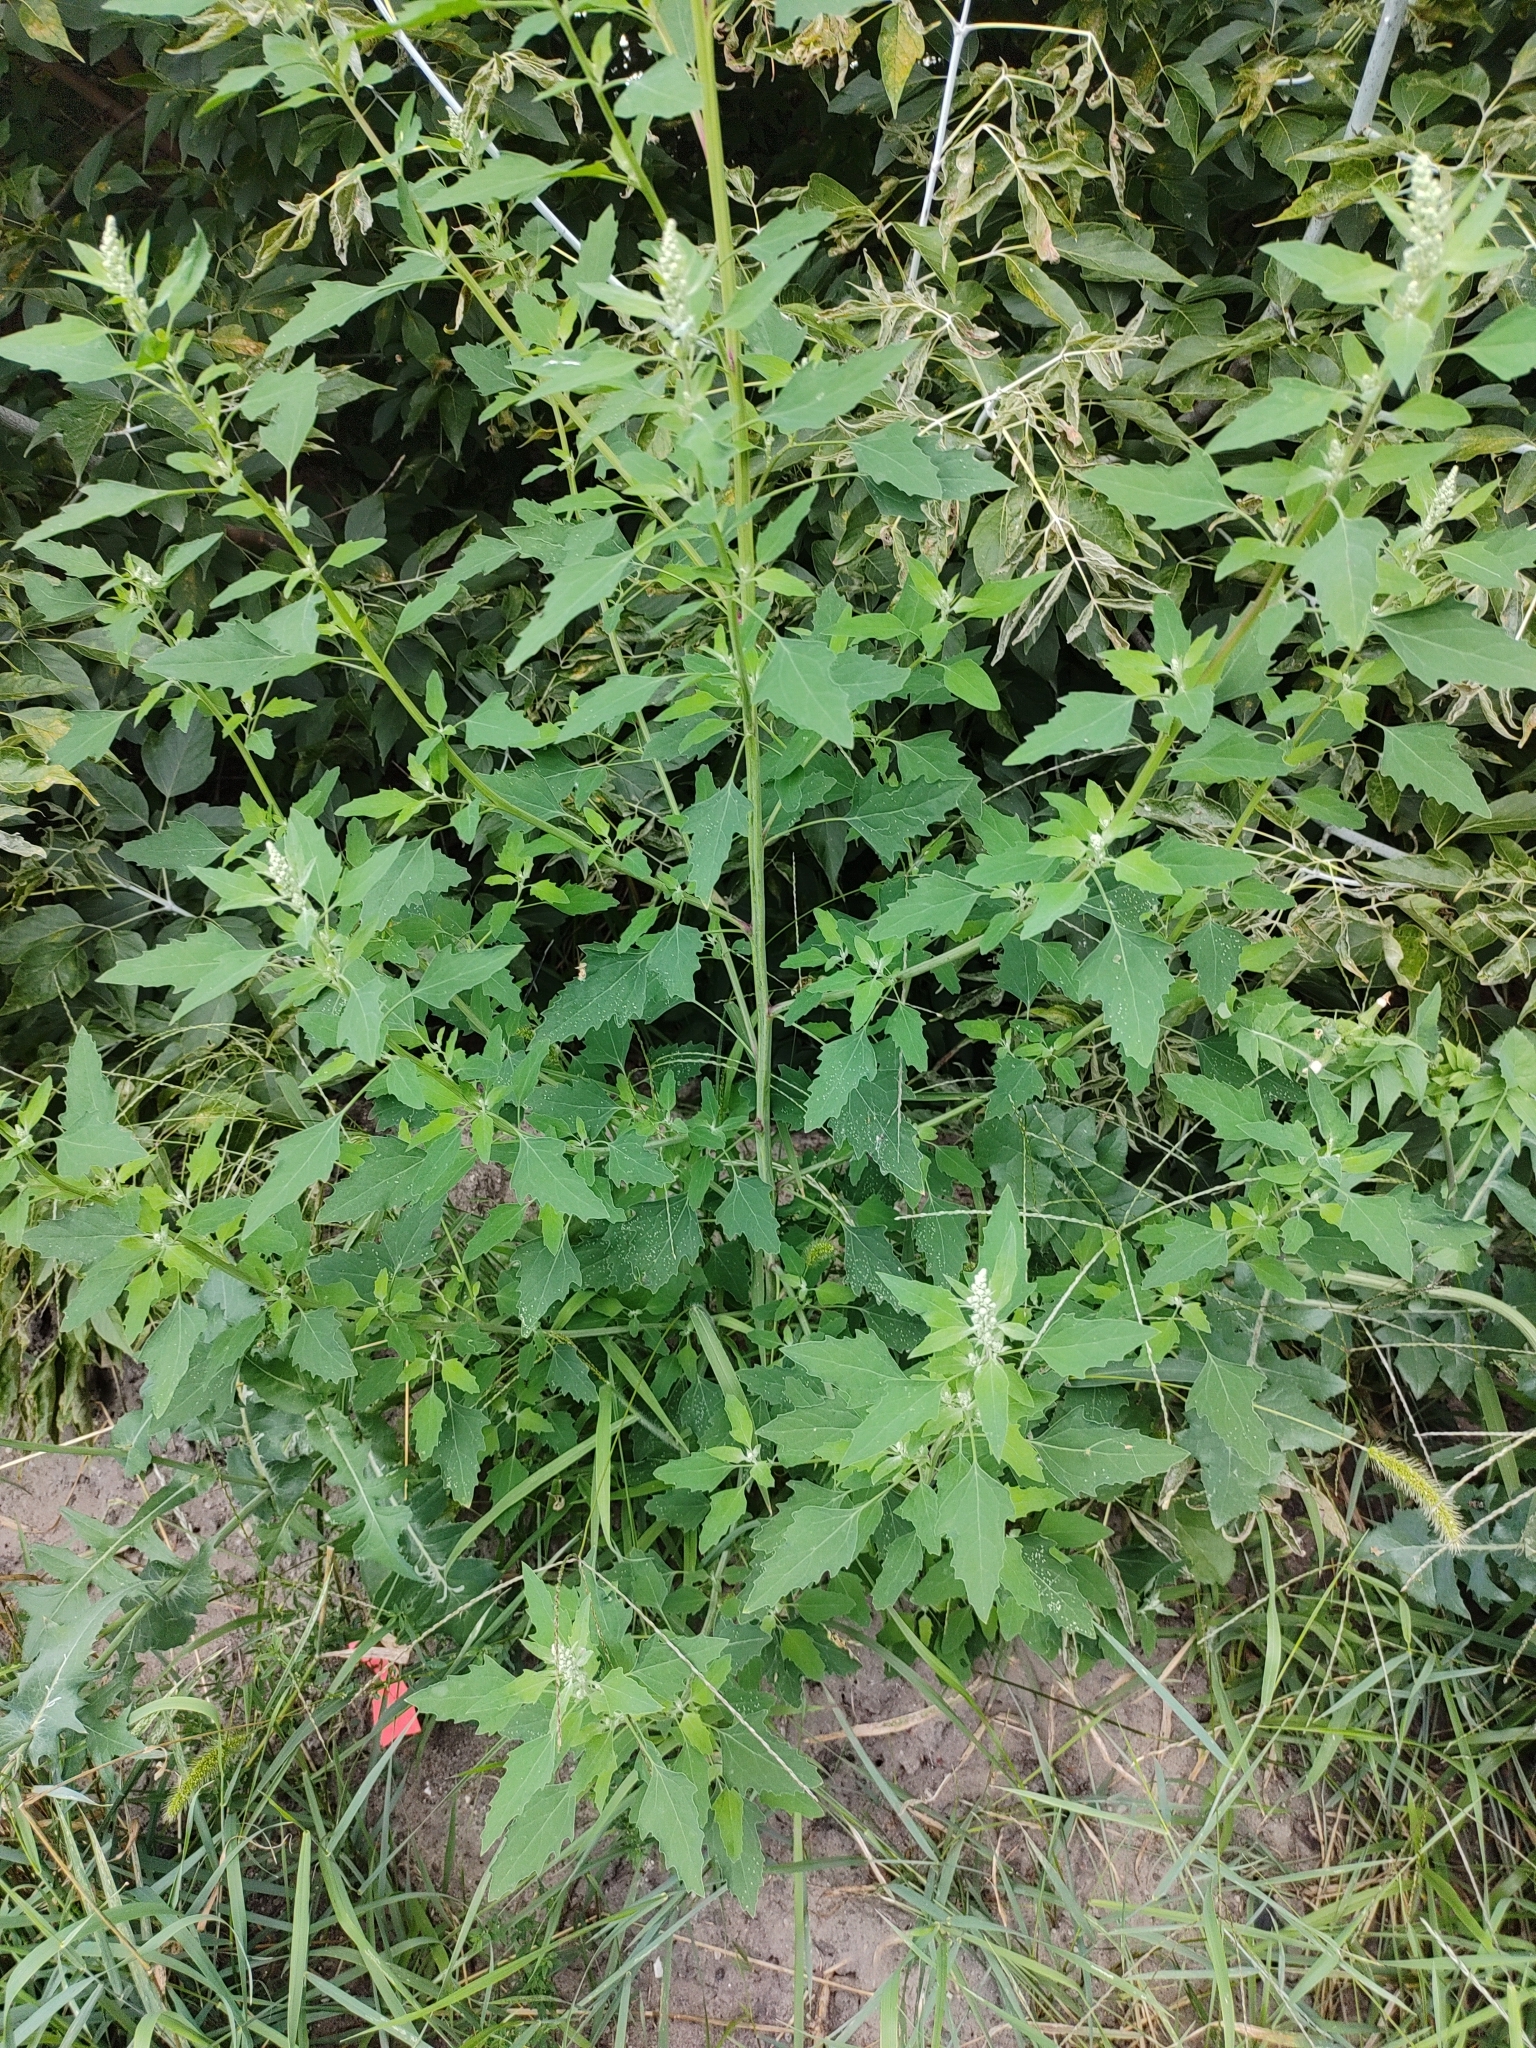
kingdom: Plantae
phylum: Tracheophyta
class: Magnoliopsida
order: Caryophyllales
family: Amaranthaceae
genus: Chenopodium
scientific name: Chenopodium album
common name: Fat-hen
